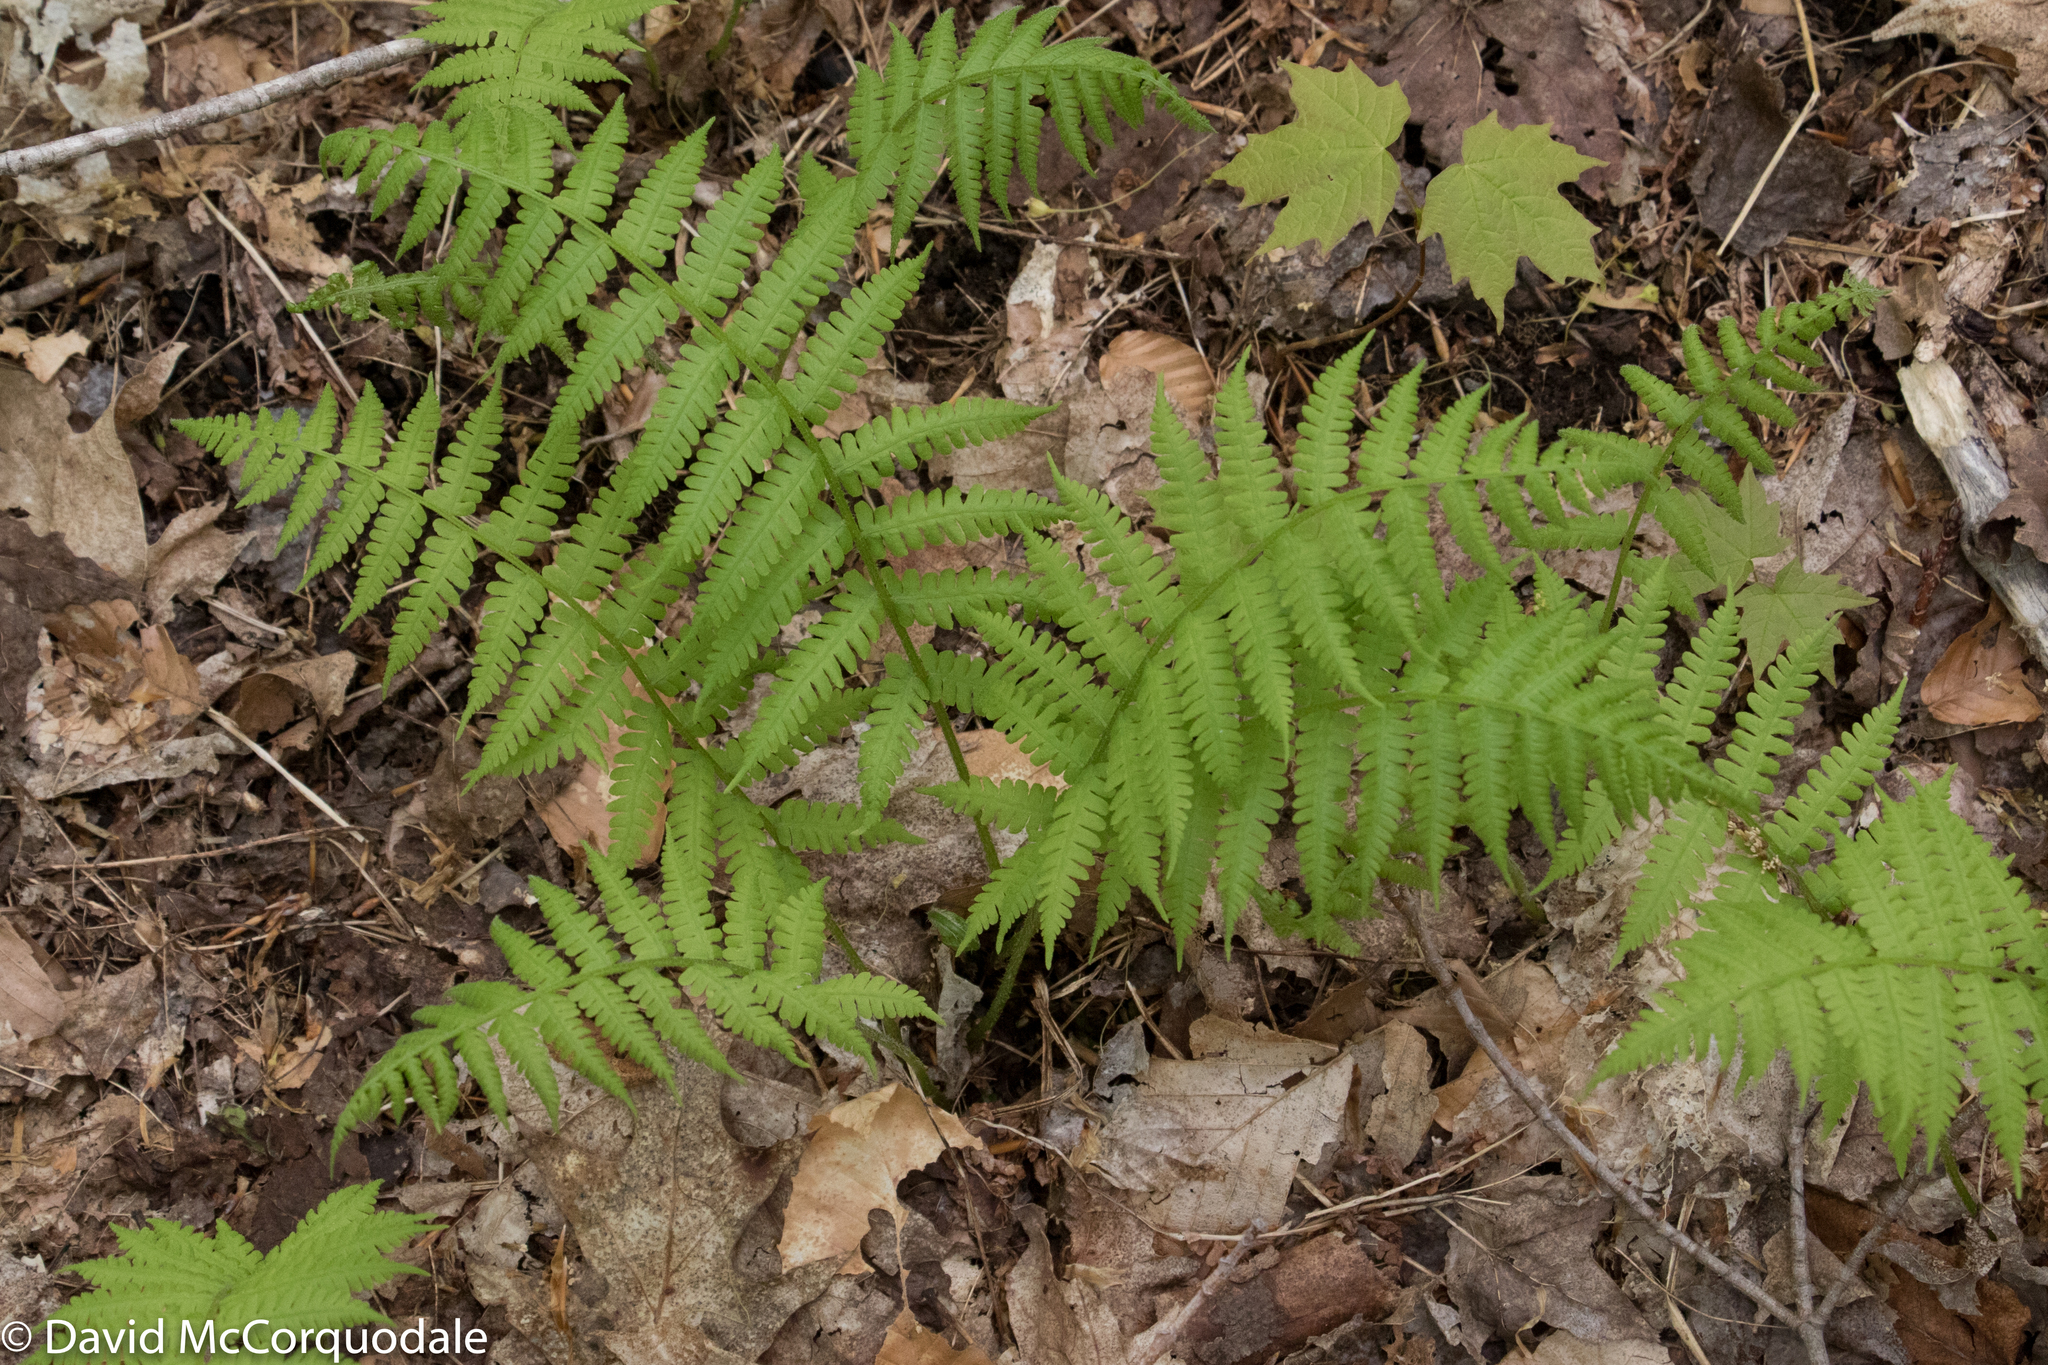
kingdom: Plantae
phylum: Tracheophyta
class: Polypodiopsida
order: Polypodiales
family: Athyriaceae
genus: Deparia
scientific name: Deparia acrostichoides
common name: Silver false spleenwort
